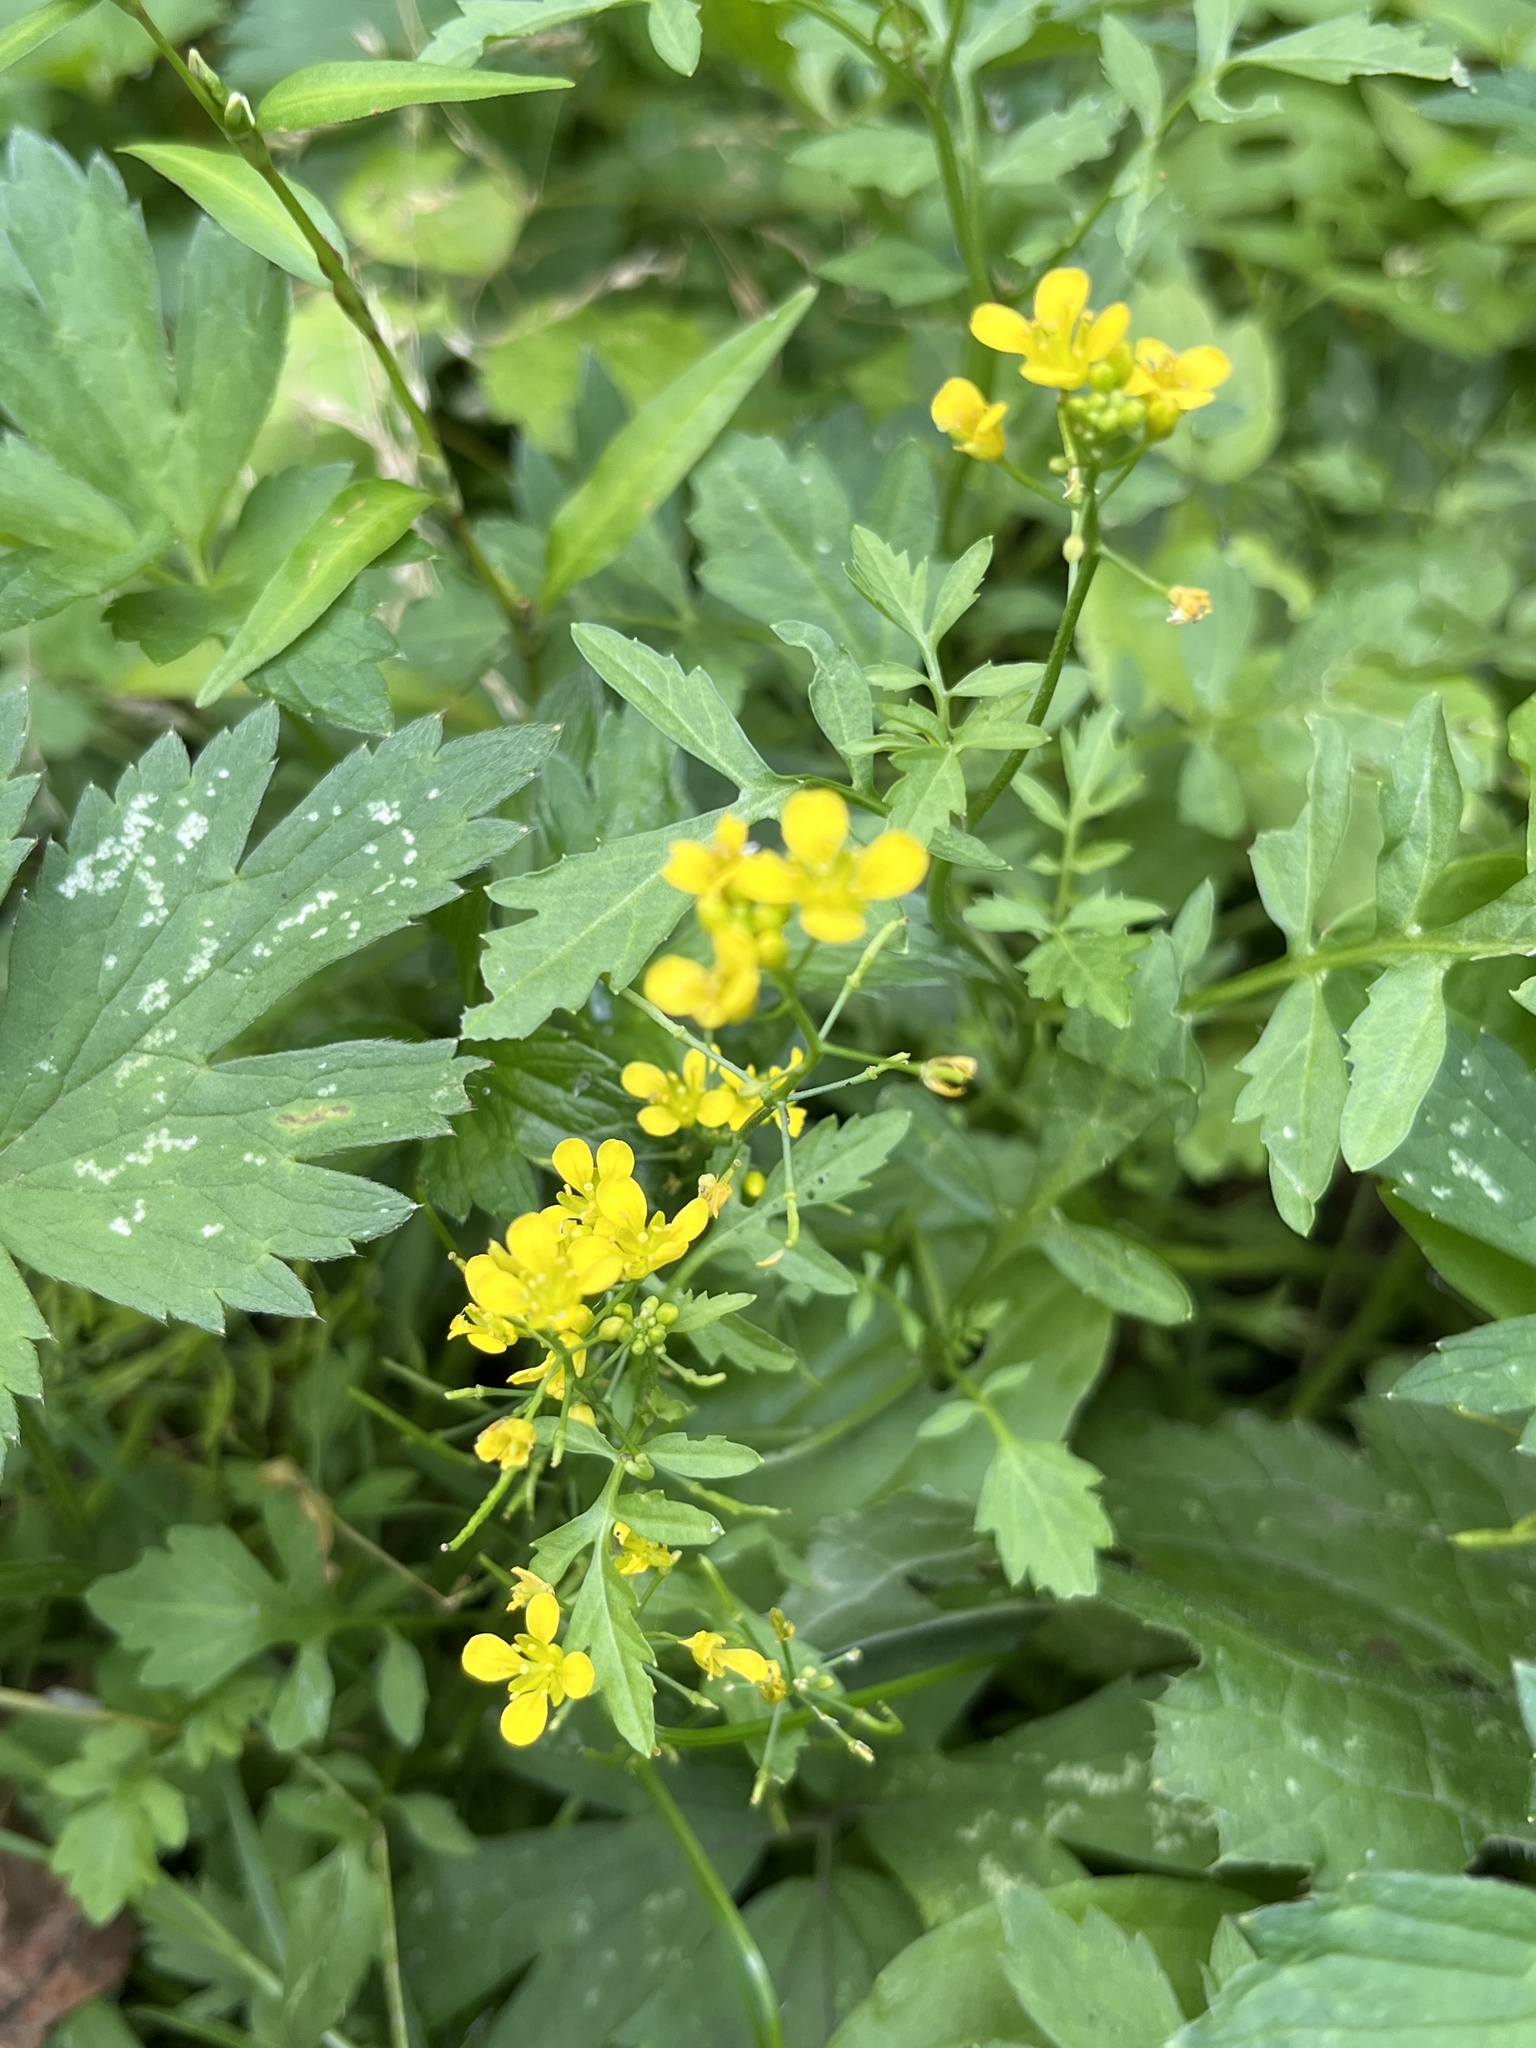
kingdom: Plantae
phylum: Tracheophyta
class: Magnoliopsida
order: Brassicales
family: Brassicaceae
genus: Rorippa
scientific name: Rorippa sylvestris
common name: Creeping yellowcress
